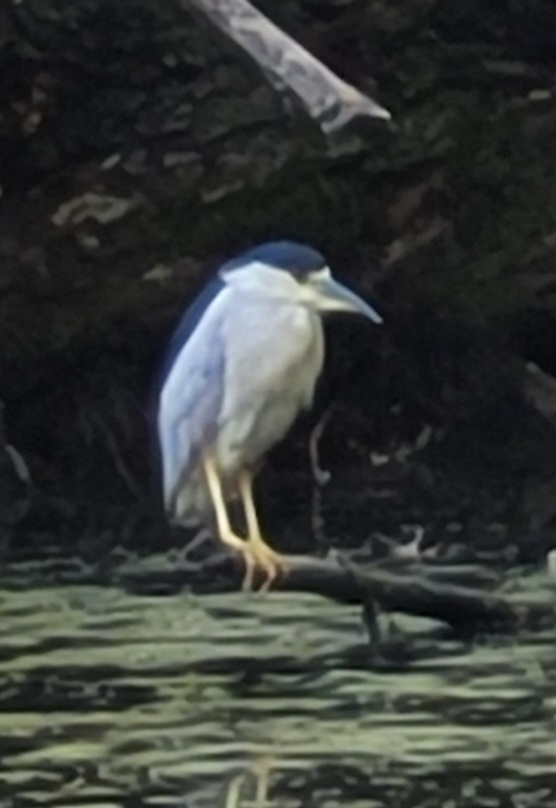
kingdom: Animalia
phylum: Chordata
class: Aves
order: Pelecaniformes
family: Ardeidae
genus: Nycticorax
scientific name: Nycticorax nycticorax
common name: Black-crowned night heron
